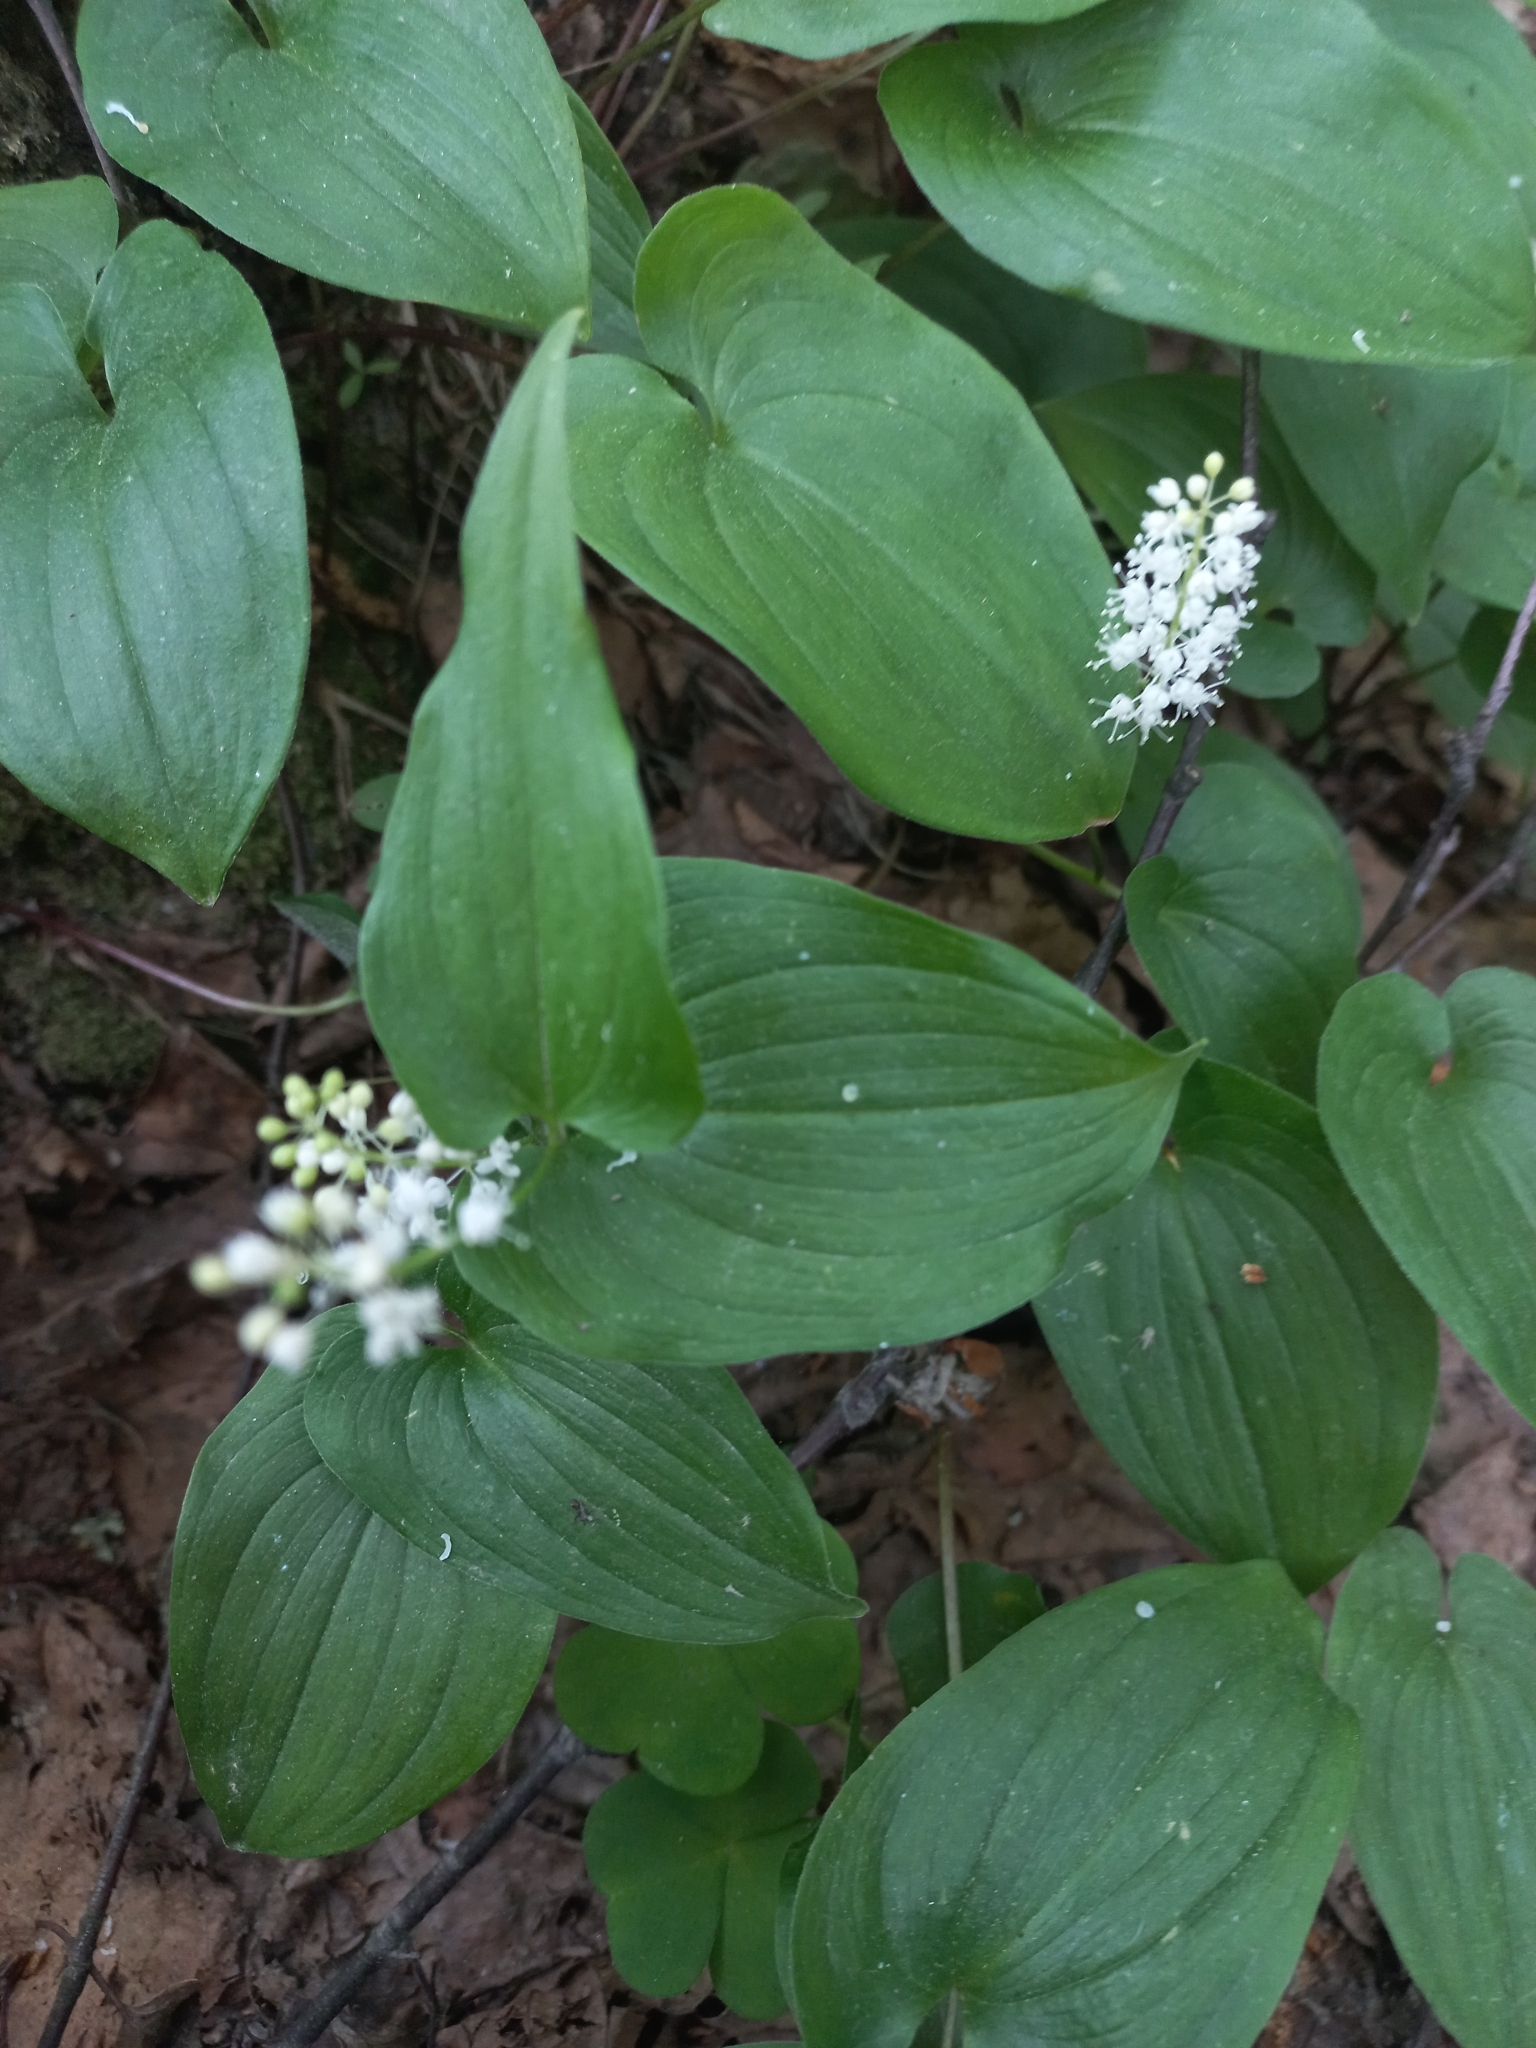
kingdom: Plantae
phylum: Tracheophyta
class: Liliopsida
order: Asparagales
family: Asparagaceae
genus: Maianthemum
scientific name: Maianthemum bifolium
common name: May lily
